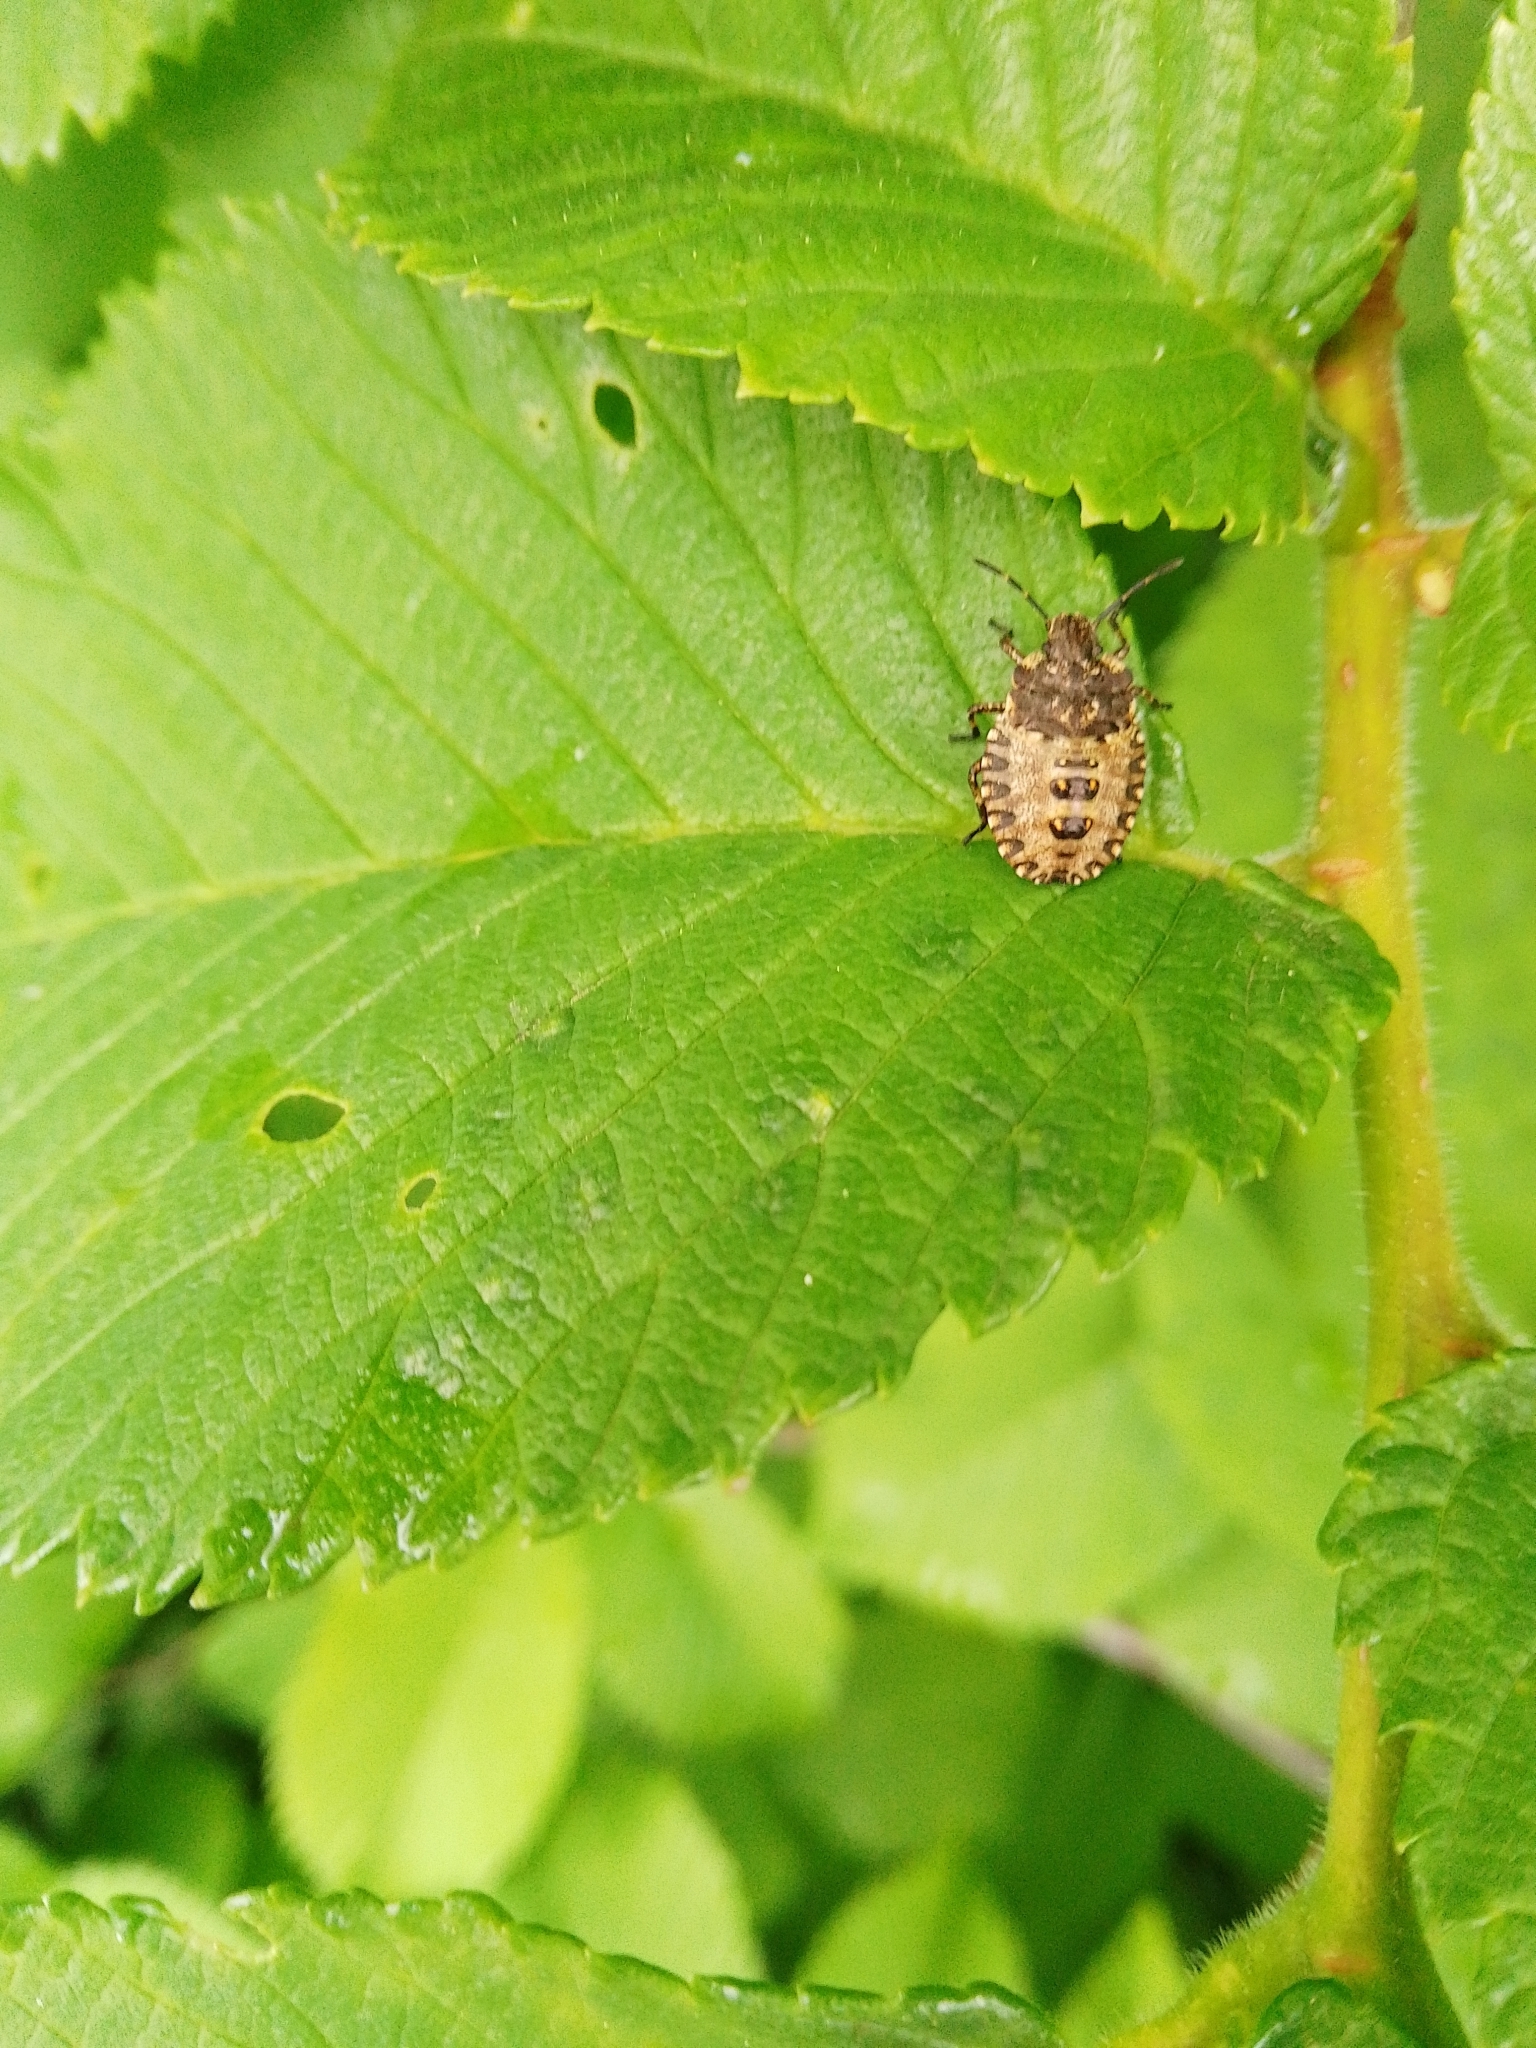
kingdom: Animalia
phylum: Arthropoda
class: Insecta
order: Hemiptera
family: Pentatomidae
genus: Pentatoma
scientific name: Pentatoma rufipes
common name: Forest bug
